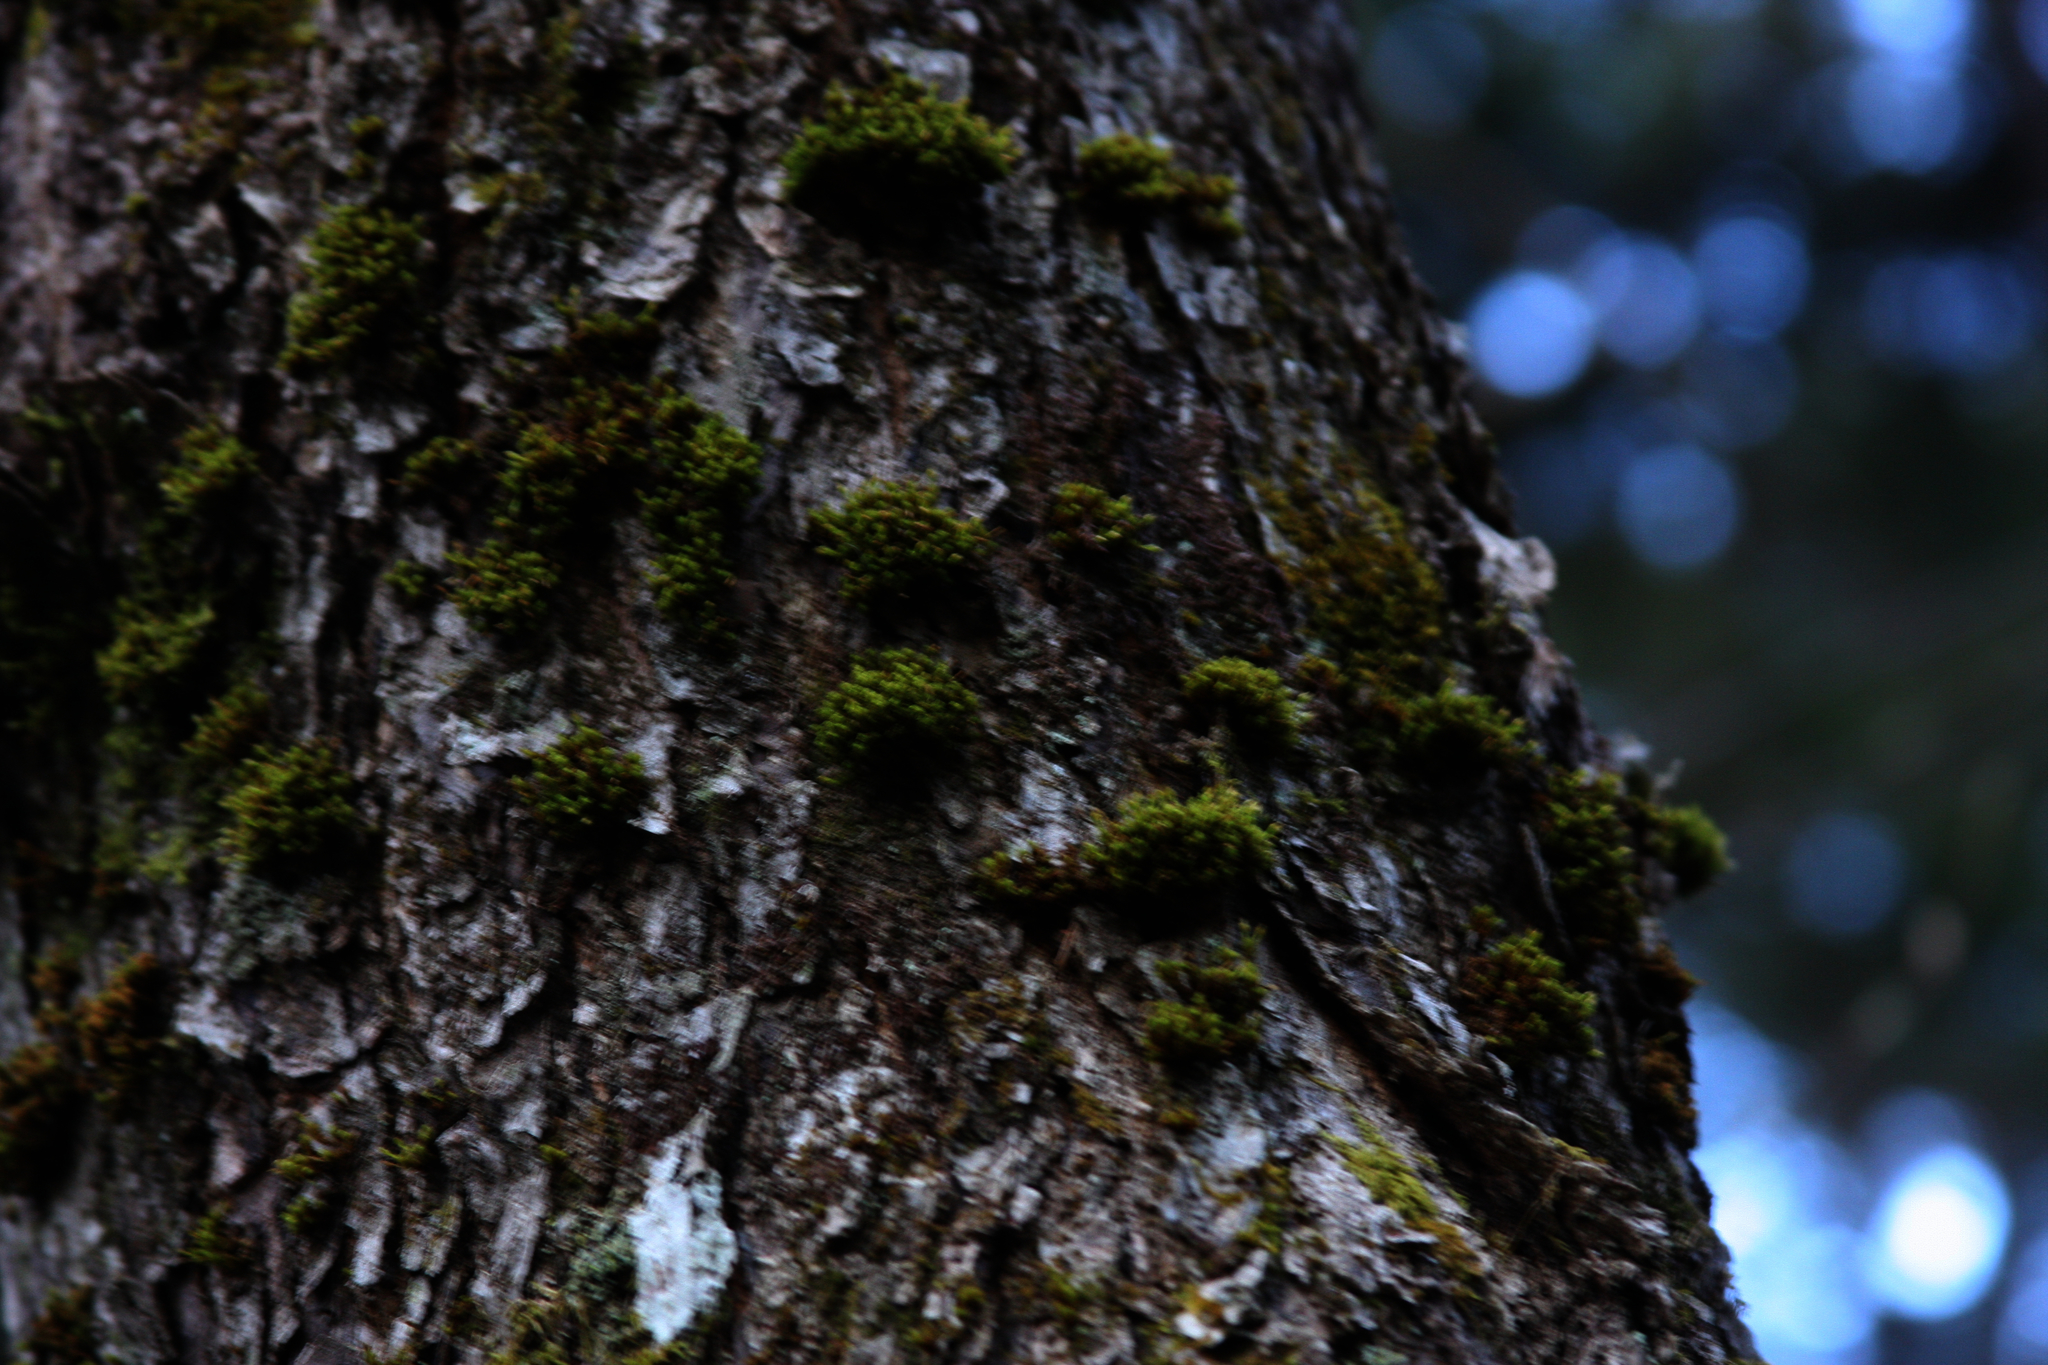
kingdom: Plantae
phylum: Bryophyta
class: Bryopsida
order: Orthotrichales
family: Orthotrichaceae
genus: Ulota
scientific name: Ulota crispa
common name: Crisped pincushion moss
